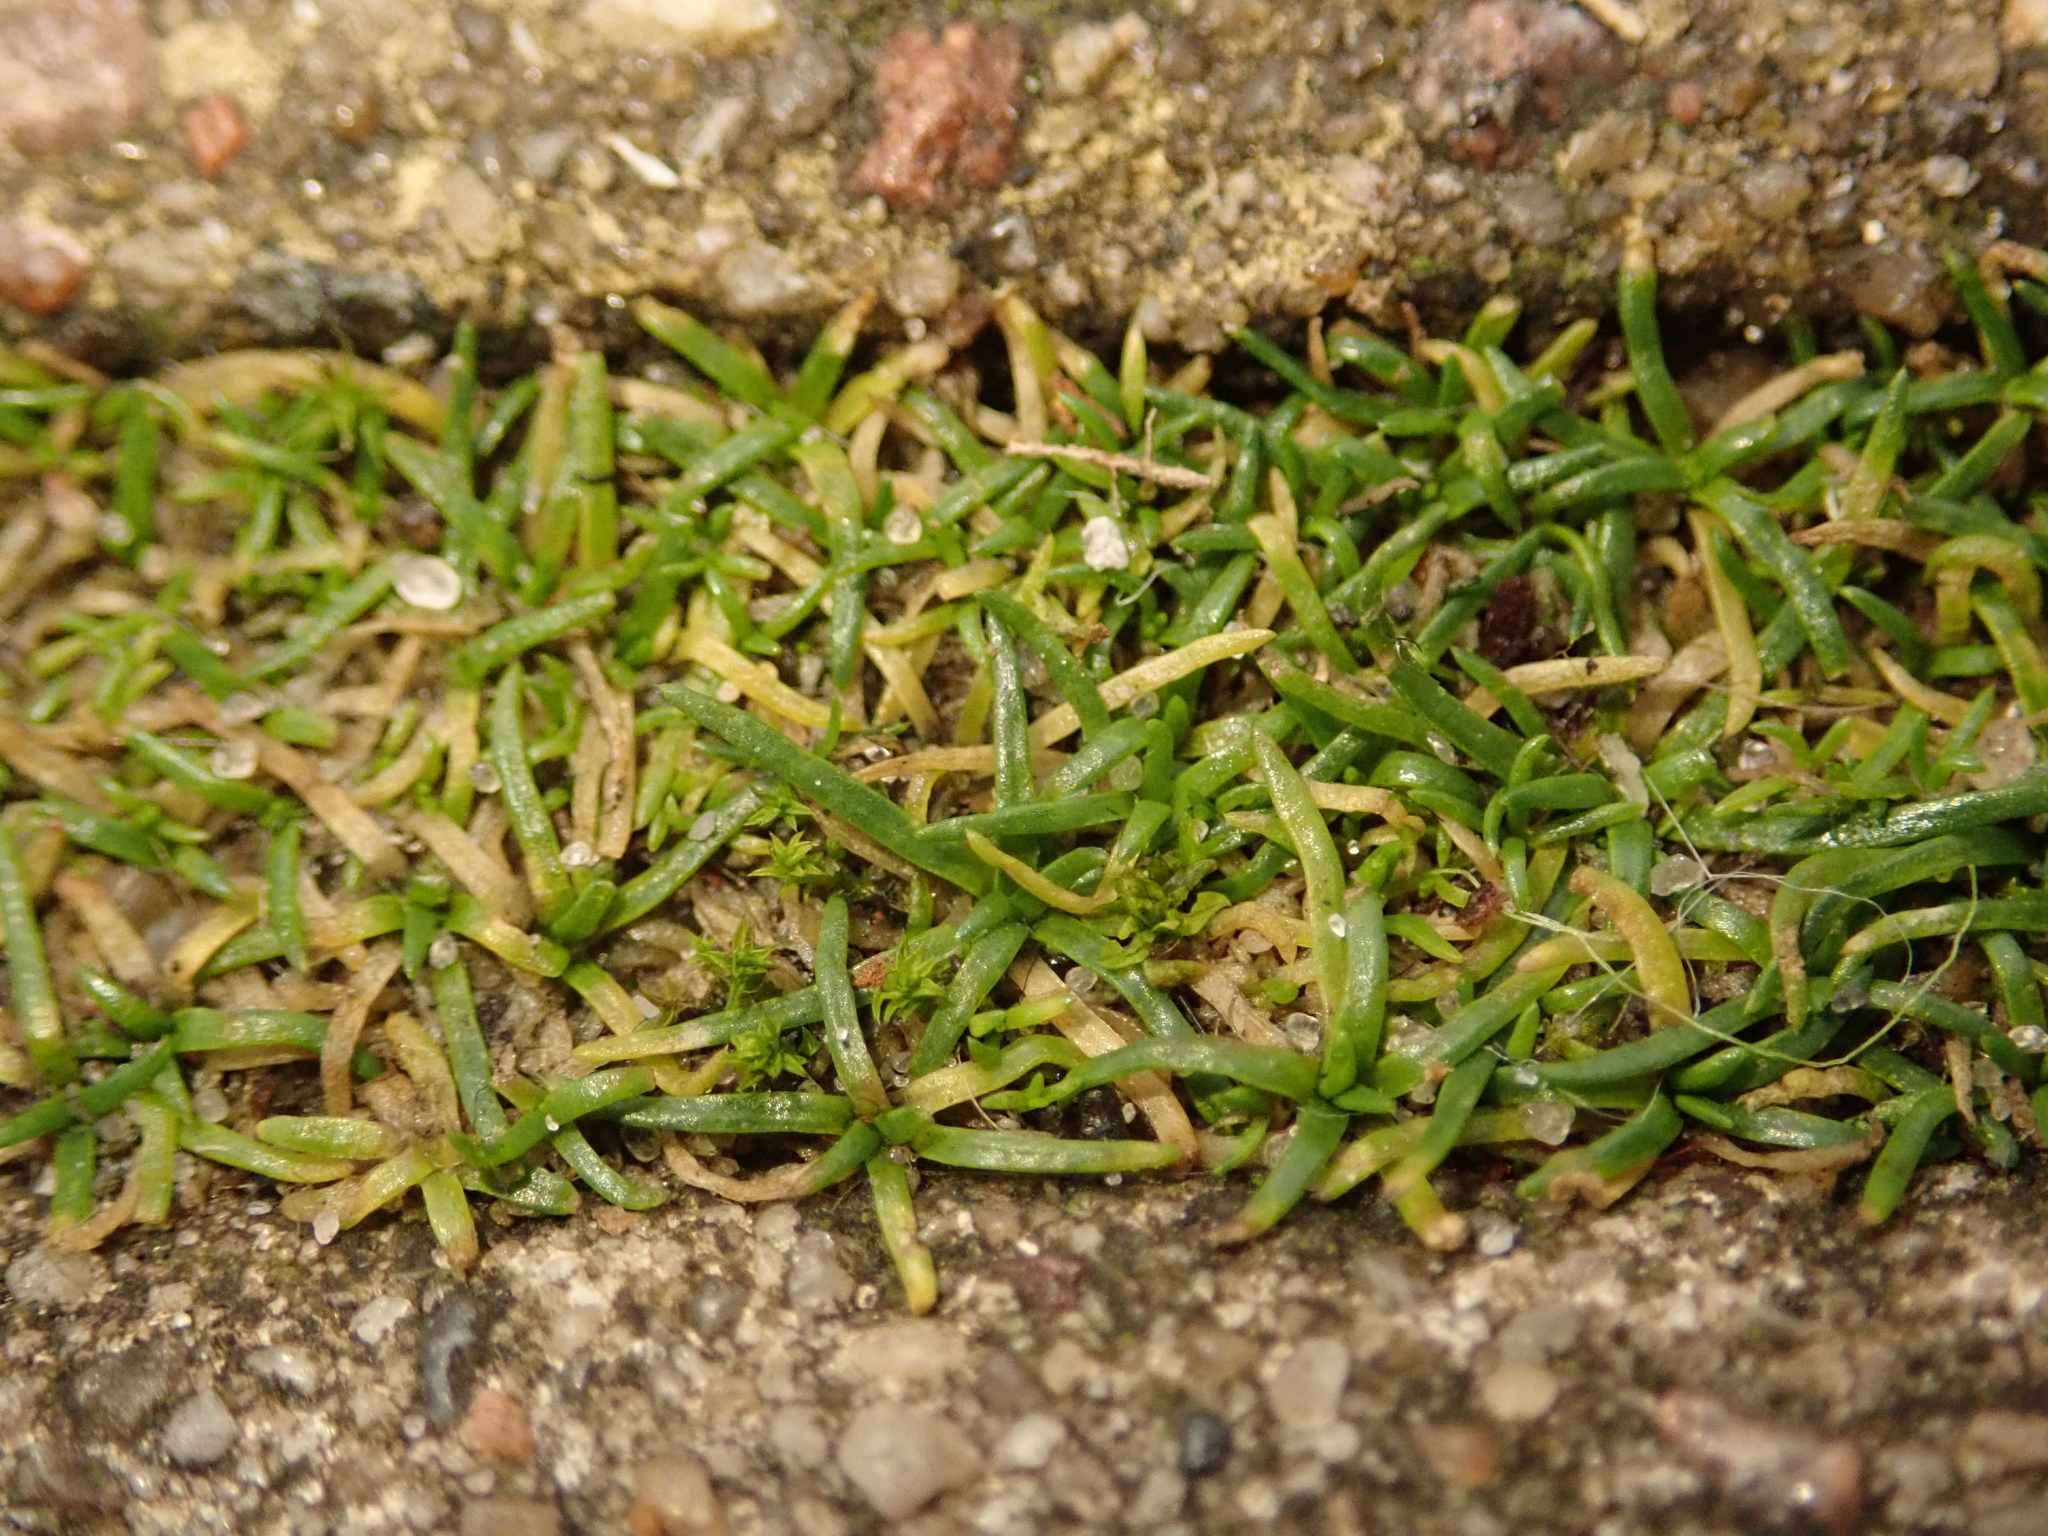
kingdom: Plantae
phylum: Tracheophyta
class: Magnoliopsida
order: Caryophyllales
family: Caryophyllaceae
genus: Sagina
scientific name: Sagina procumbens
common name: Procumbent pearlwort
